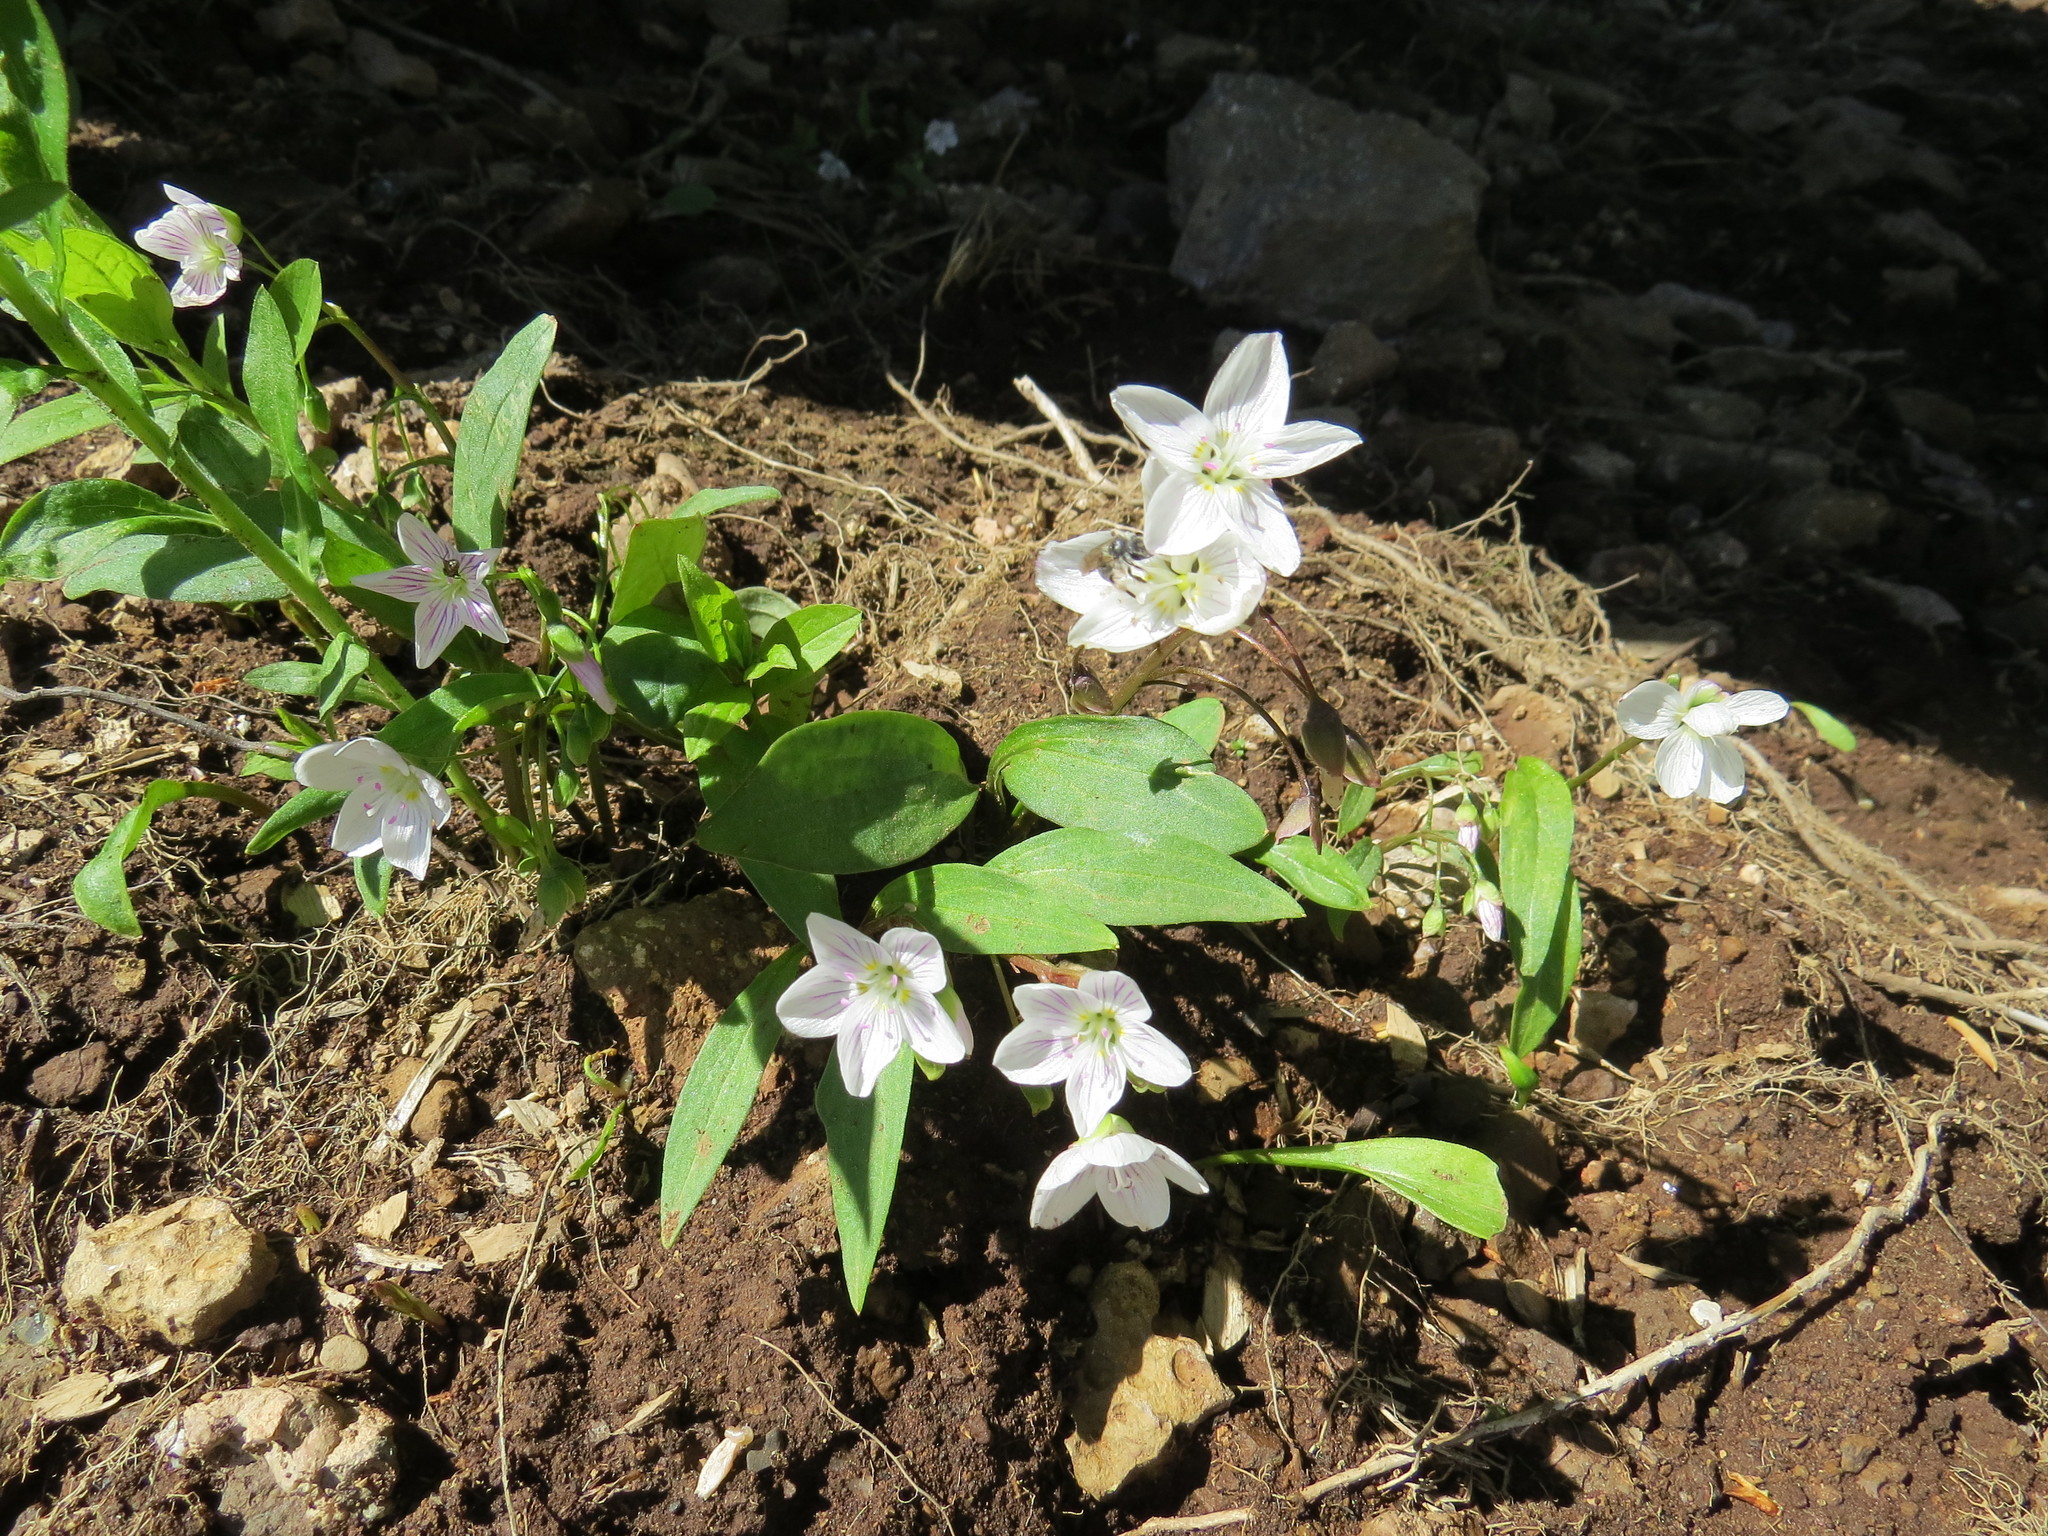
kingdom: Plantae
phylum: Tracheophyta
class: Magnoliopsida
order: Caryophyllales
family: Montiaceae
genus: Claytonia
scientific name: Claytonia caroliniana
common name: Carolina spring beauty
